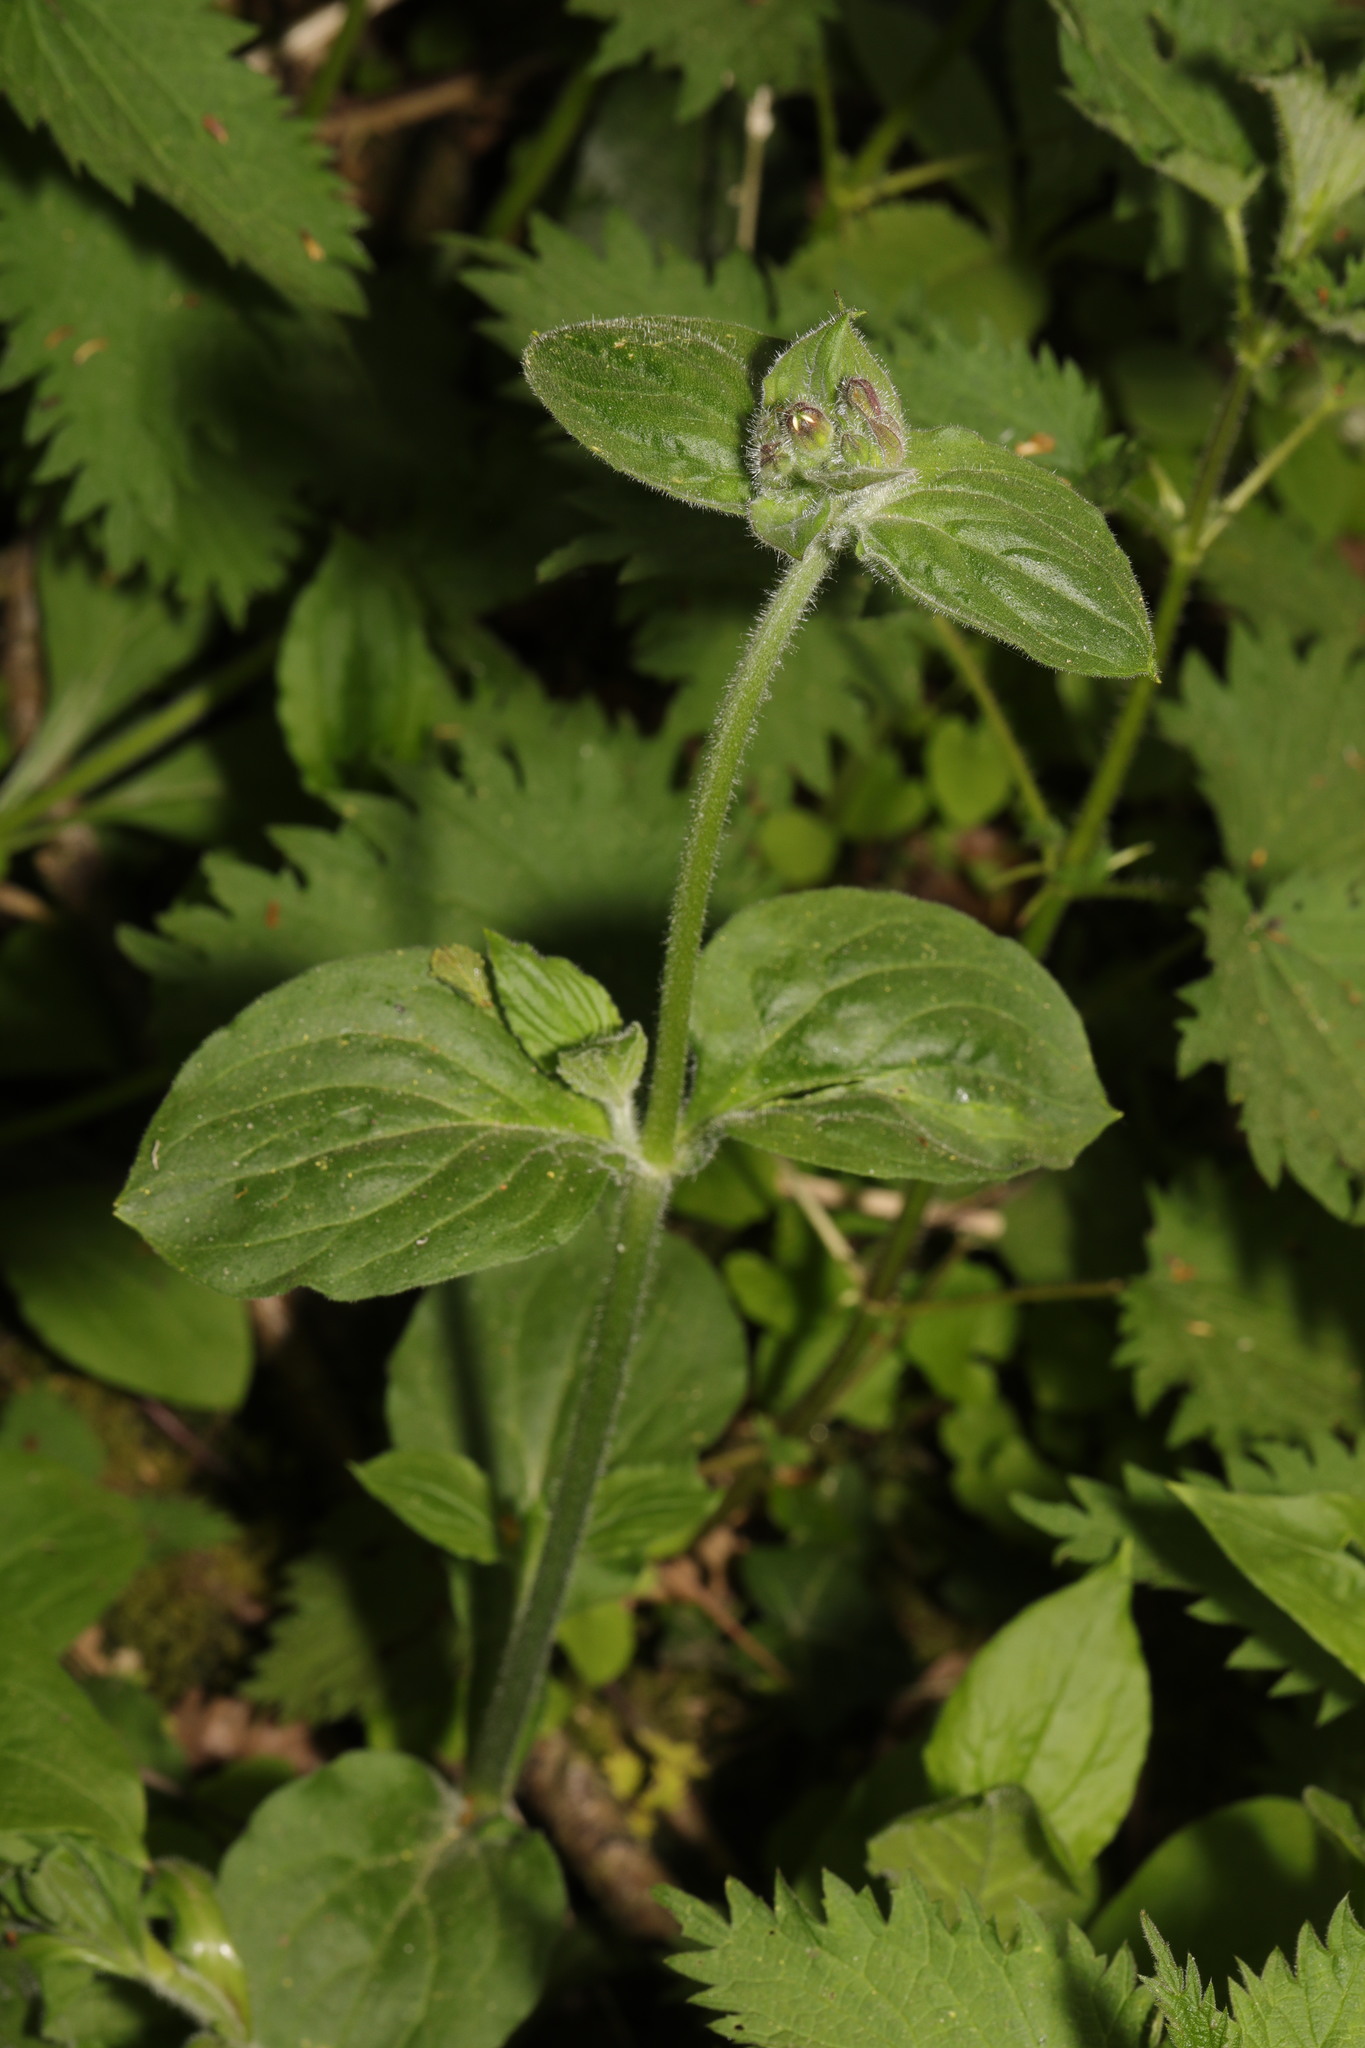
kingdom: Plantae
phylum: Tracheophyta
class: Magnoliopsida
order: Caryophyllales
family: Caryophyllaceae
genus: Silene
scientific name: Silene dioica
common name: Red campion
